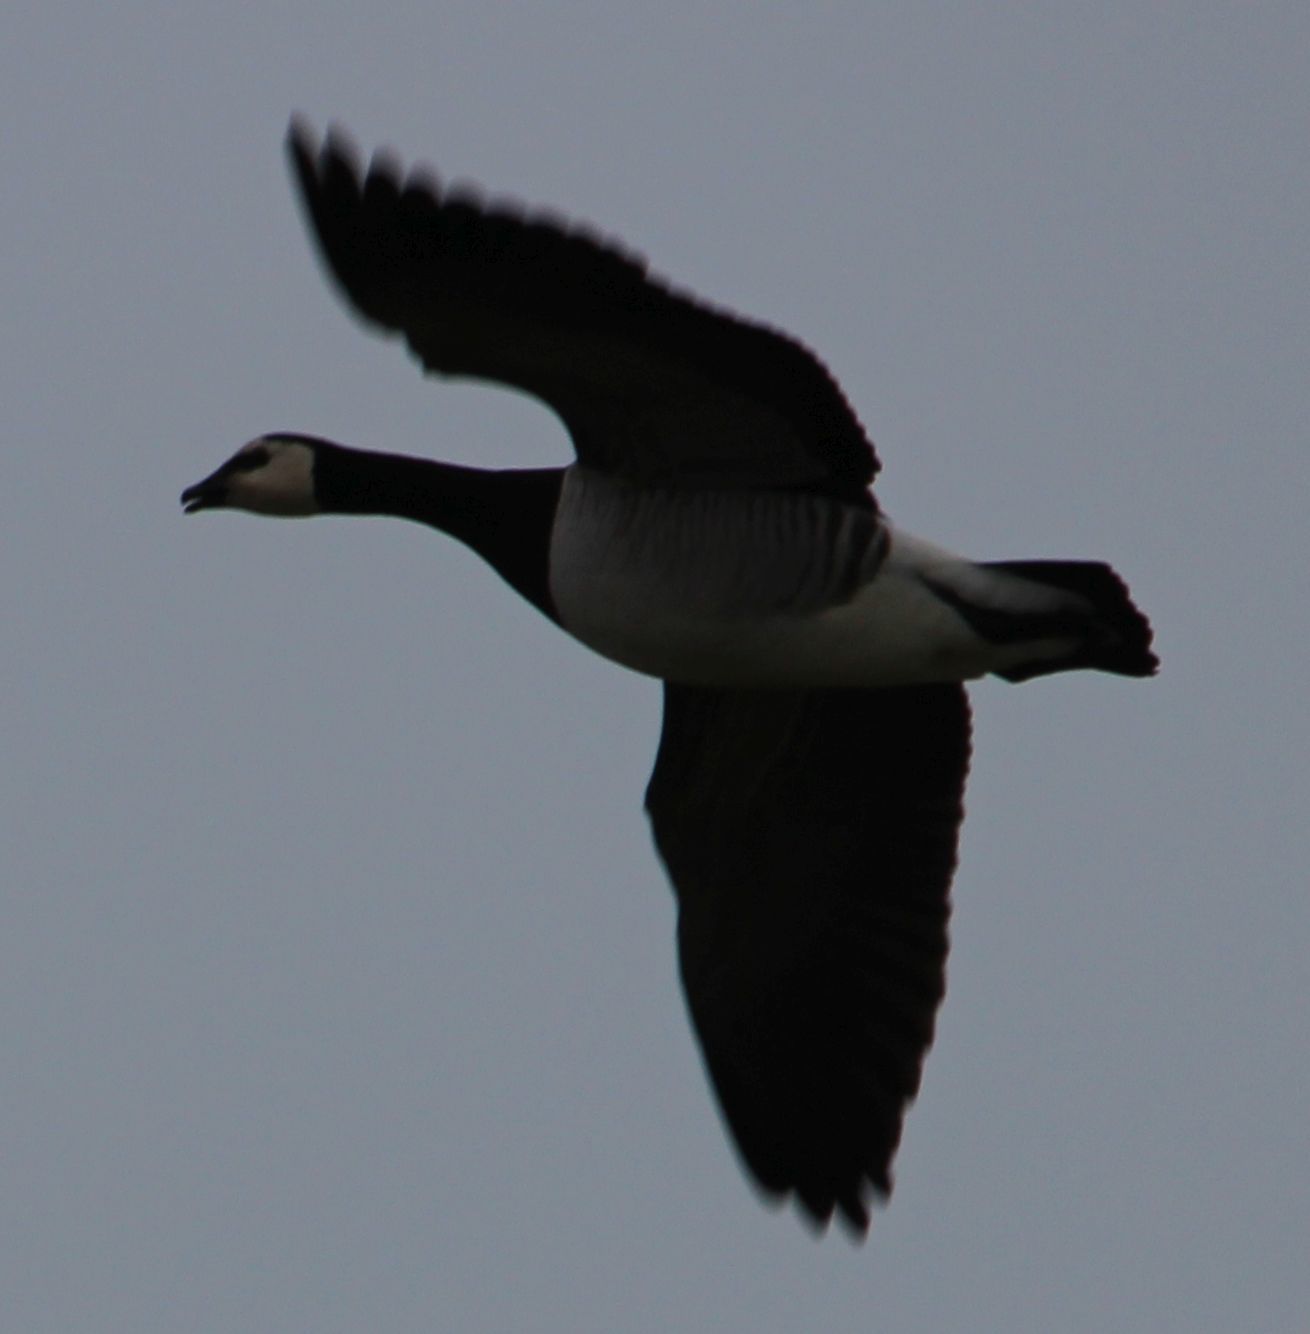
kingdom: Animalia
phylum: Chordata
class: Aves
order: Anseriformes
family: Anatidae
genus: Branta
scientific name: Branta leucopsis
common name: Barnacle goose
